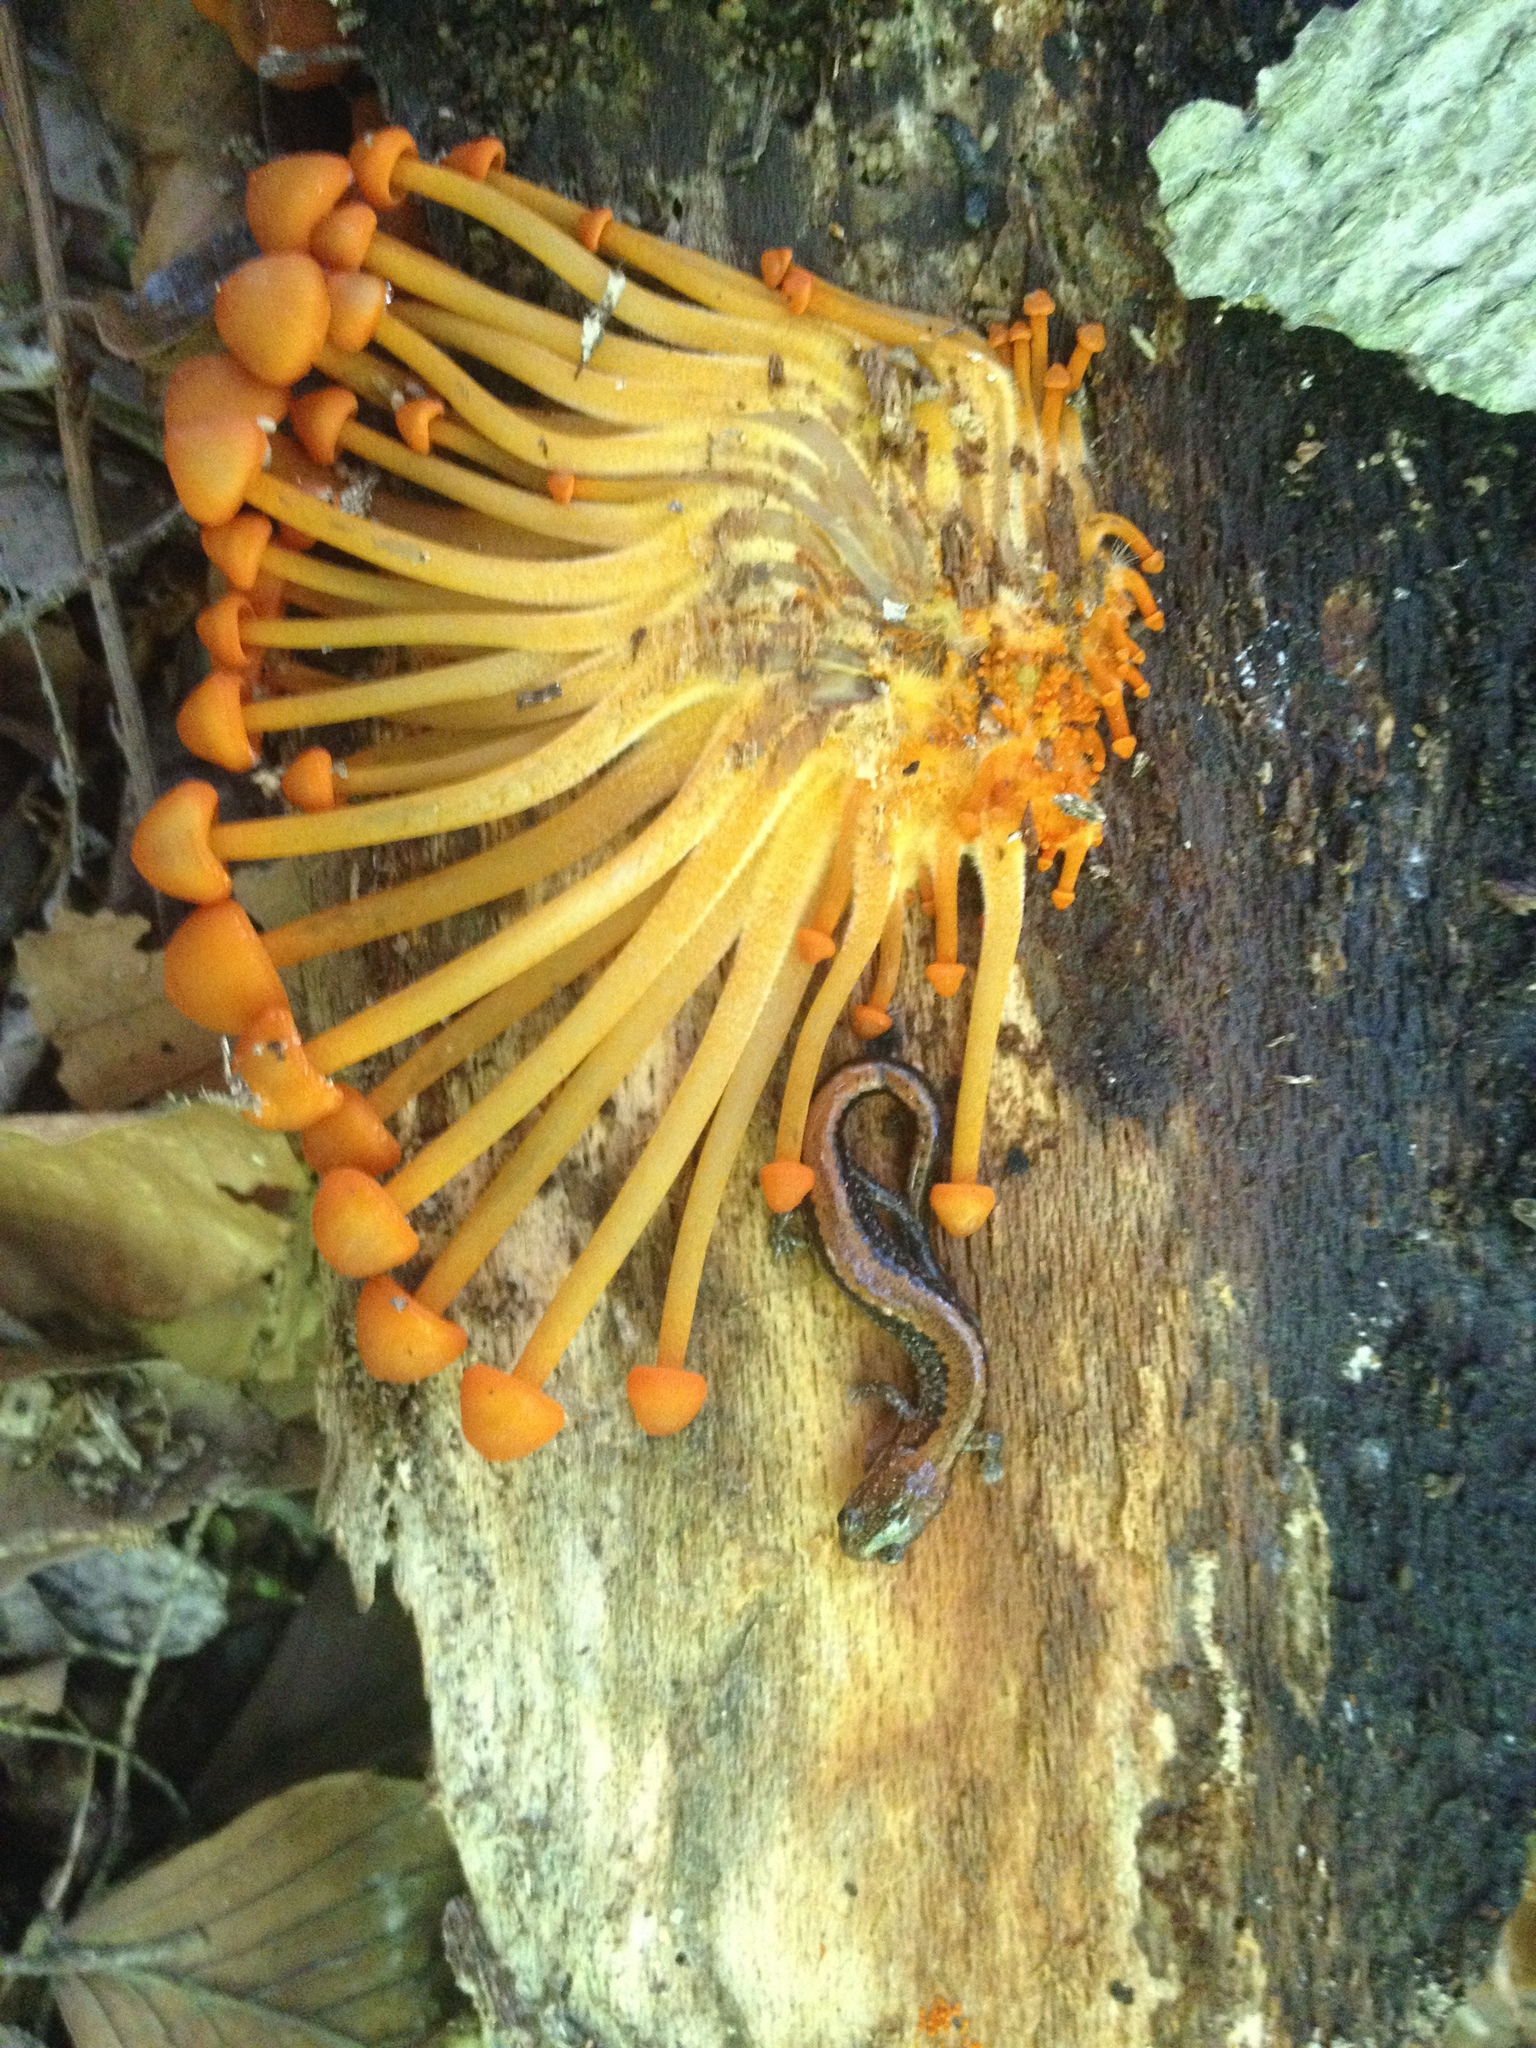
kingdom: Animalia
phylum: Chordata
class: Amphibia
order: Caudata
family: Plethodontidae
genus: Plethodon
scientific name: Plethodon cinereus
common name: Redback salamander
